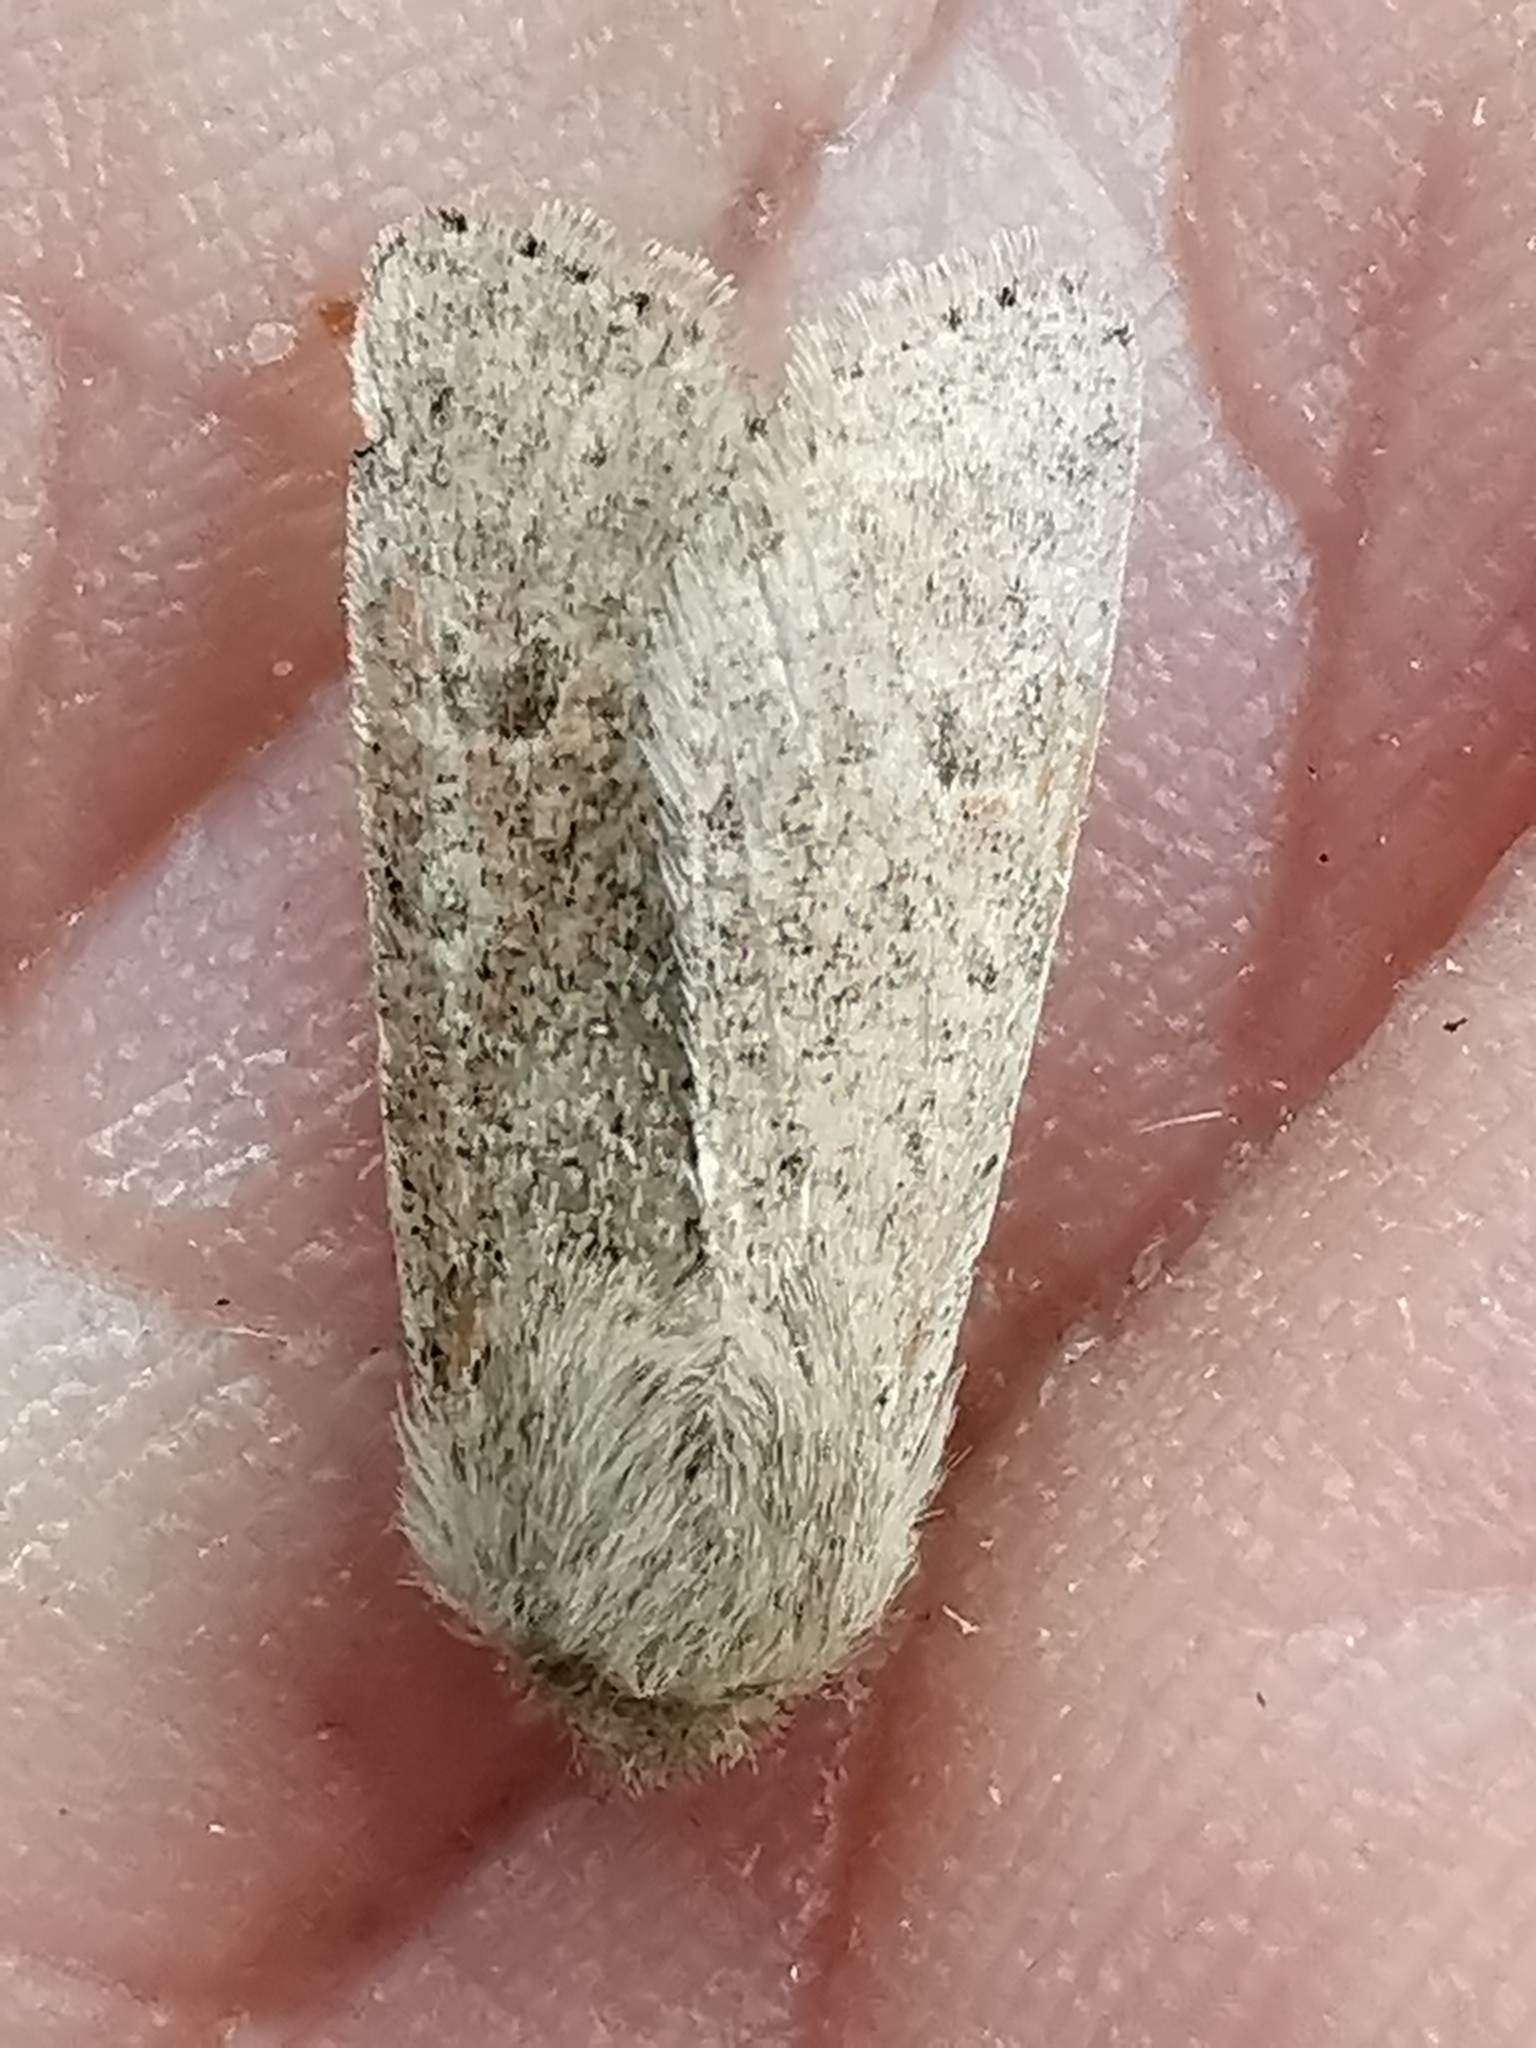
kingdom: Animalia
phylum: Arthropoda
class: Insecta
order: Lepidoptera
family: Noctuidae
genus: Orthosia
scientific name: Orthosia cruda
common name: Small quaker
